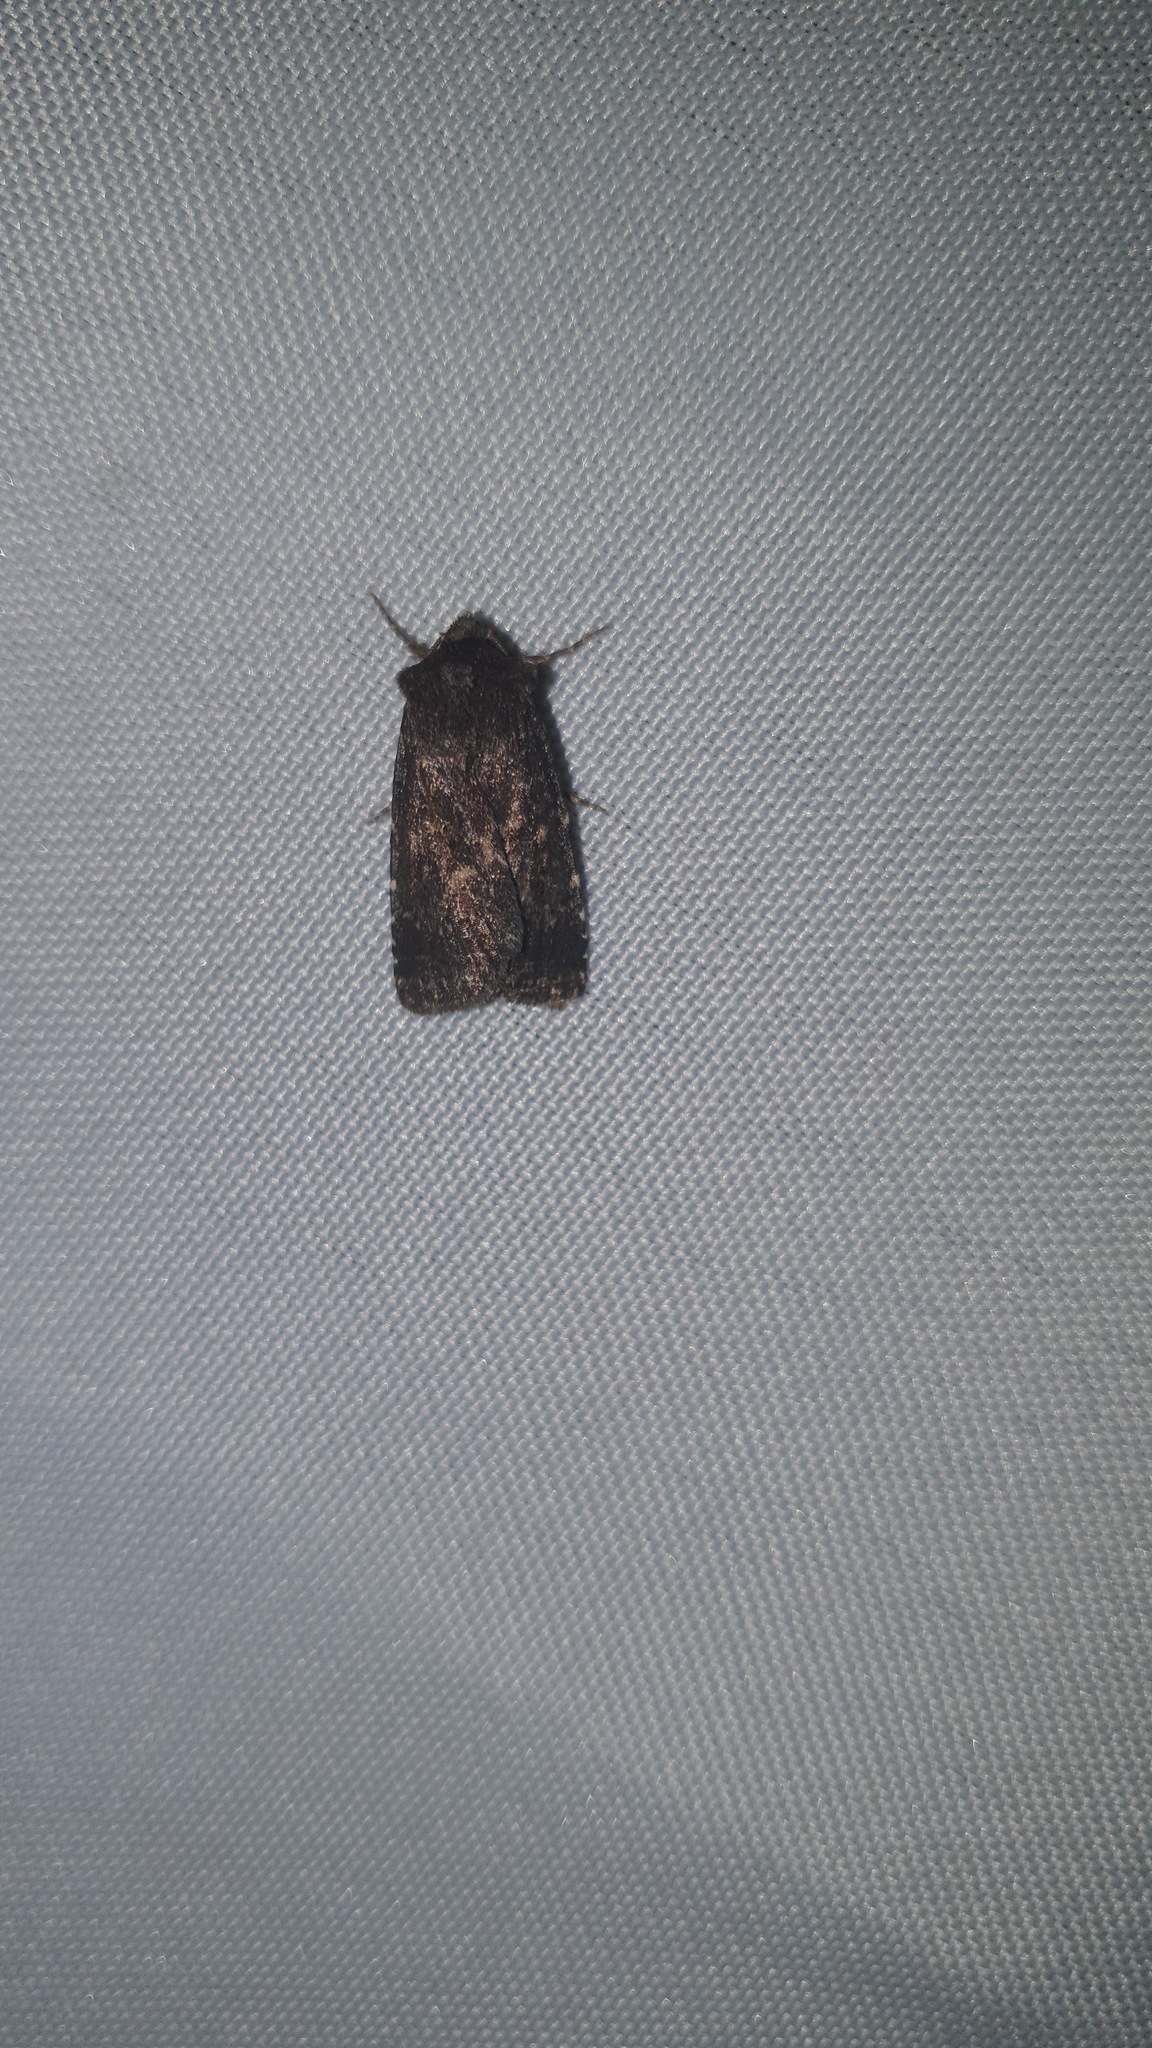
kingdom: Animalia
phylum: Arthropoda
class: Insecta
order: Lepidoptera
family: Noctuidae
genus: Lycophotia
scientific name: Lycophotia erythrina
